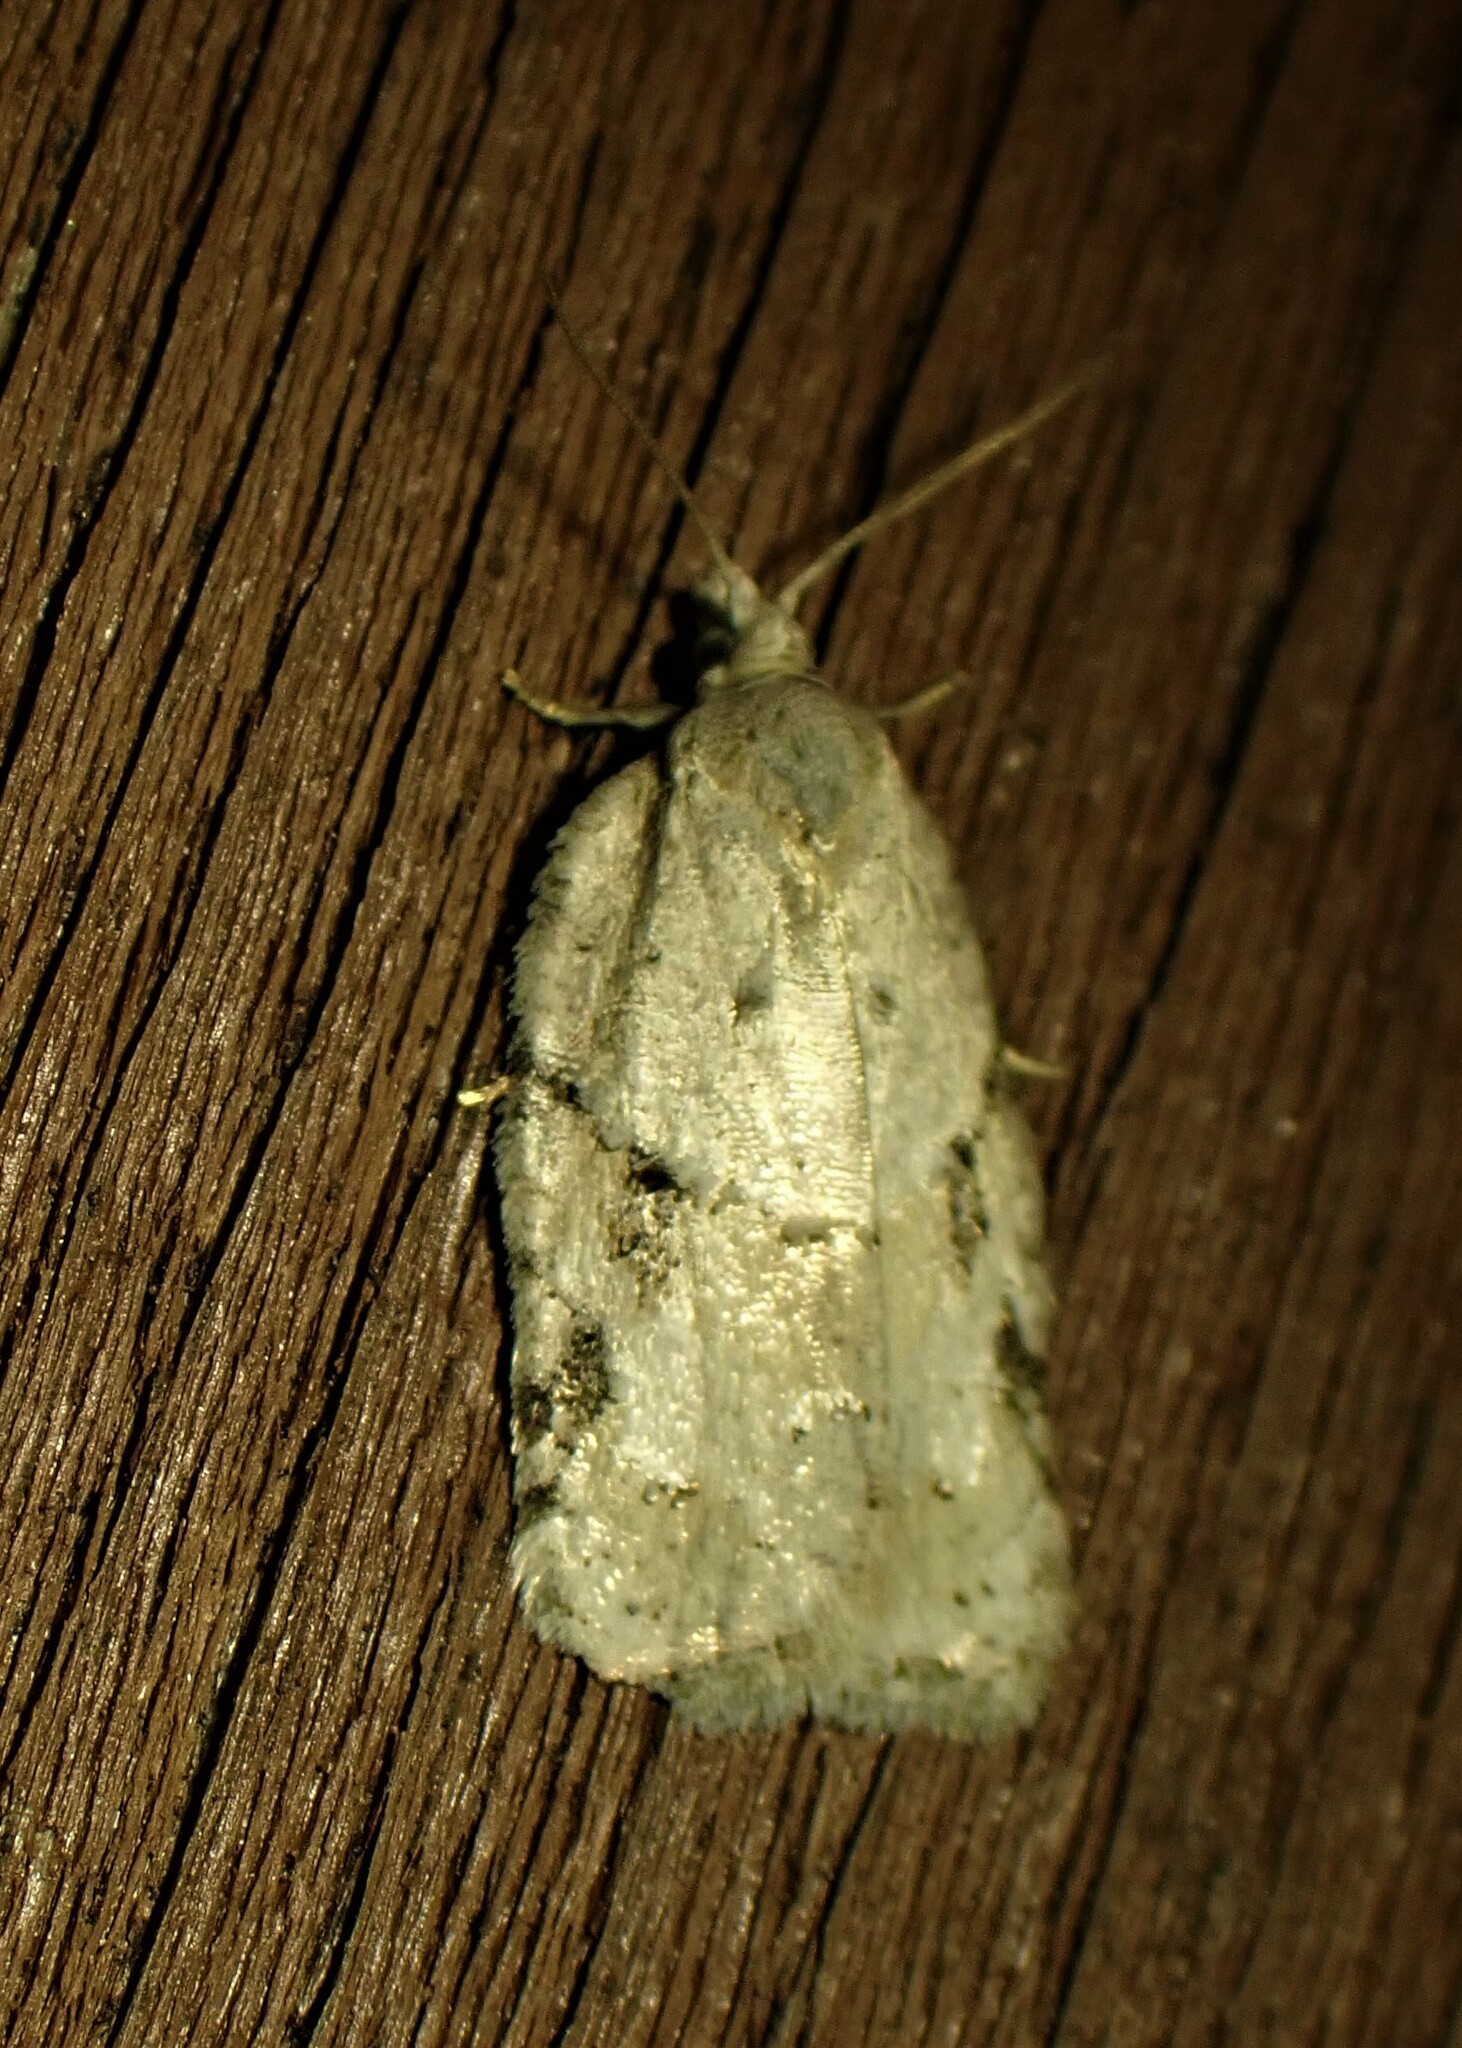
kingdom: Animalia
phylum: Arthropoda
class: Insecta
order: Lepidoptera
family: Tortricidae
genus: Acleris
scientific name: Acleris placidana
